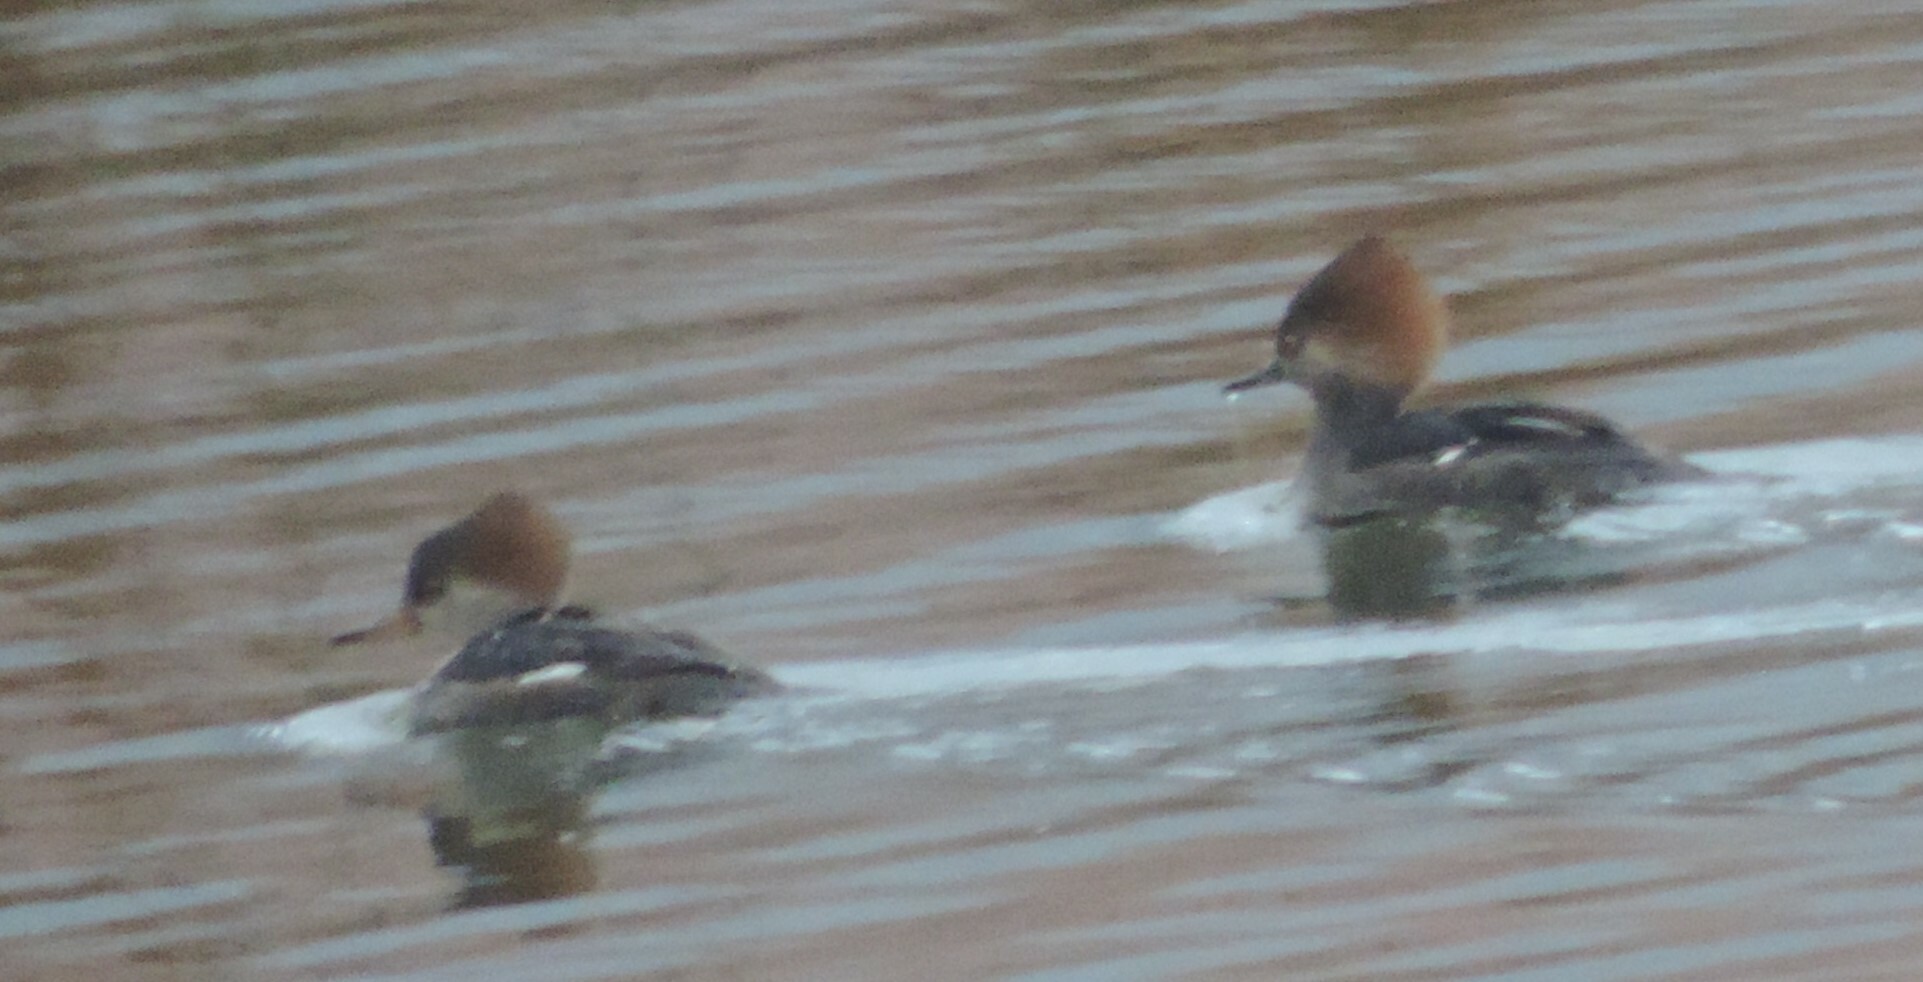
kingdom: Animalia
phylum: Chordata
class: Aves
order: Anseriformes
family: Anatidae
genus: Lophodytes
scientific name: Lophodytes cucullatus
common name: Hooded merganser
